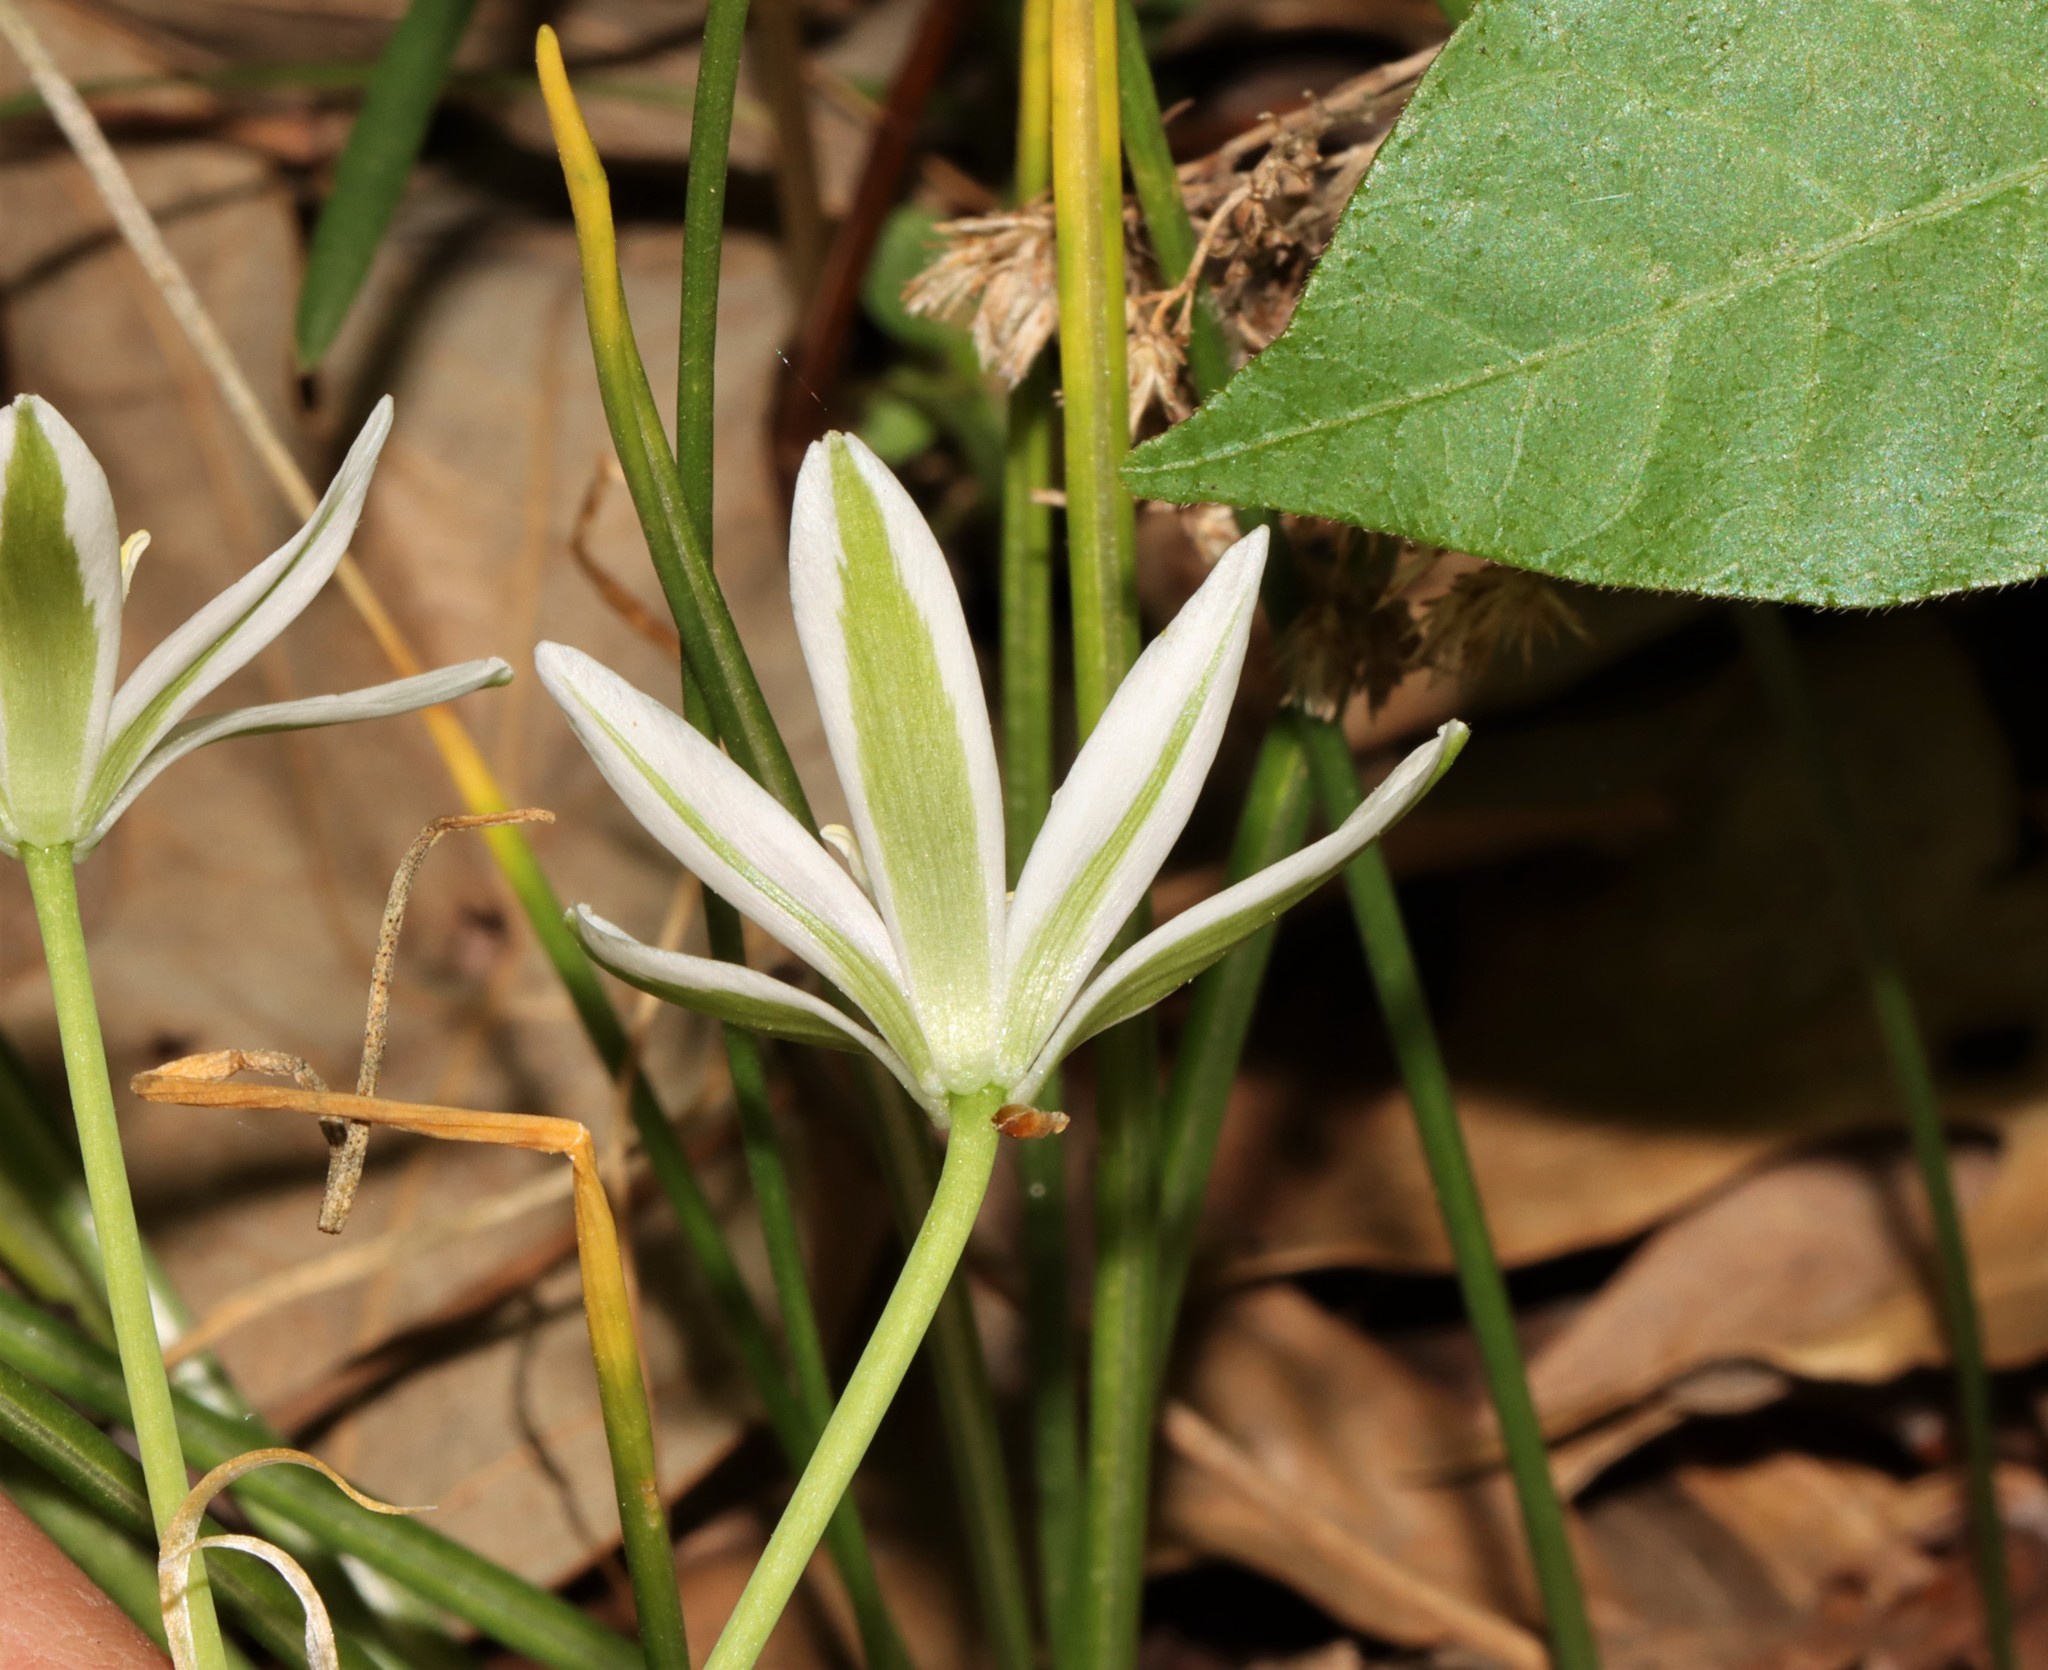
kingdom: Plantae
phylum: Tracheophyta
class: Liliopsida
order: Asparagales
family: Asparagaceae
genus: Ornithogalum
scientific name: Ornithogalum umbellatum
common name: Garden star-of-bethlehem
